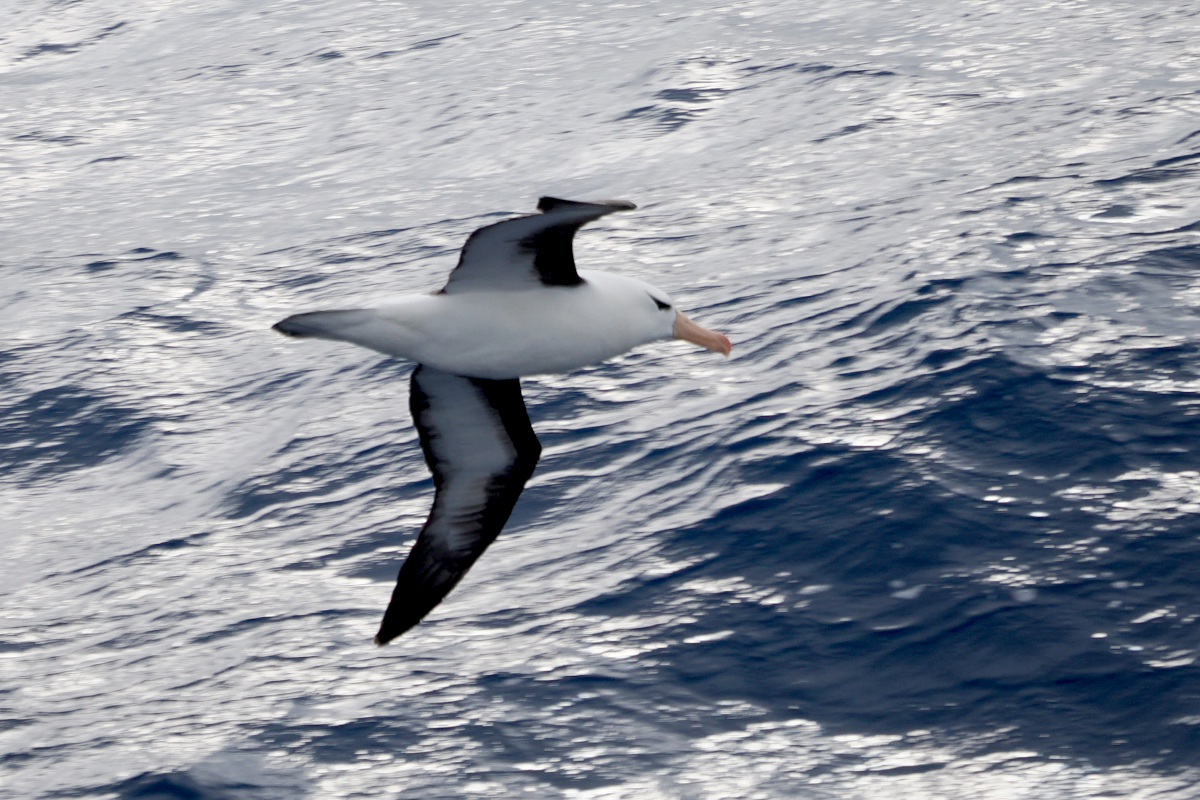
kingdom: Animalia
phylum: Chordata
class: Aves
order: Procellariiformes
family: Diomedeidae
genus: Thalassarche
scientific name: Thalassarche melanophris
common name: Black-browed albatross
